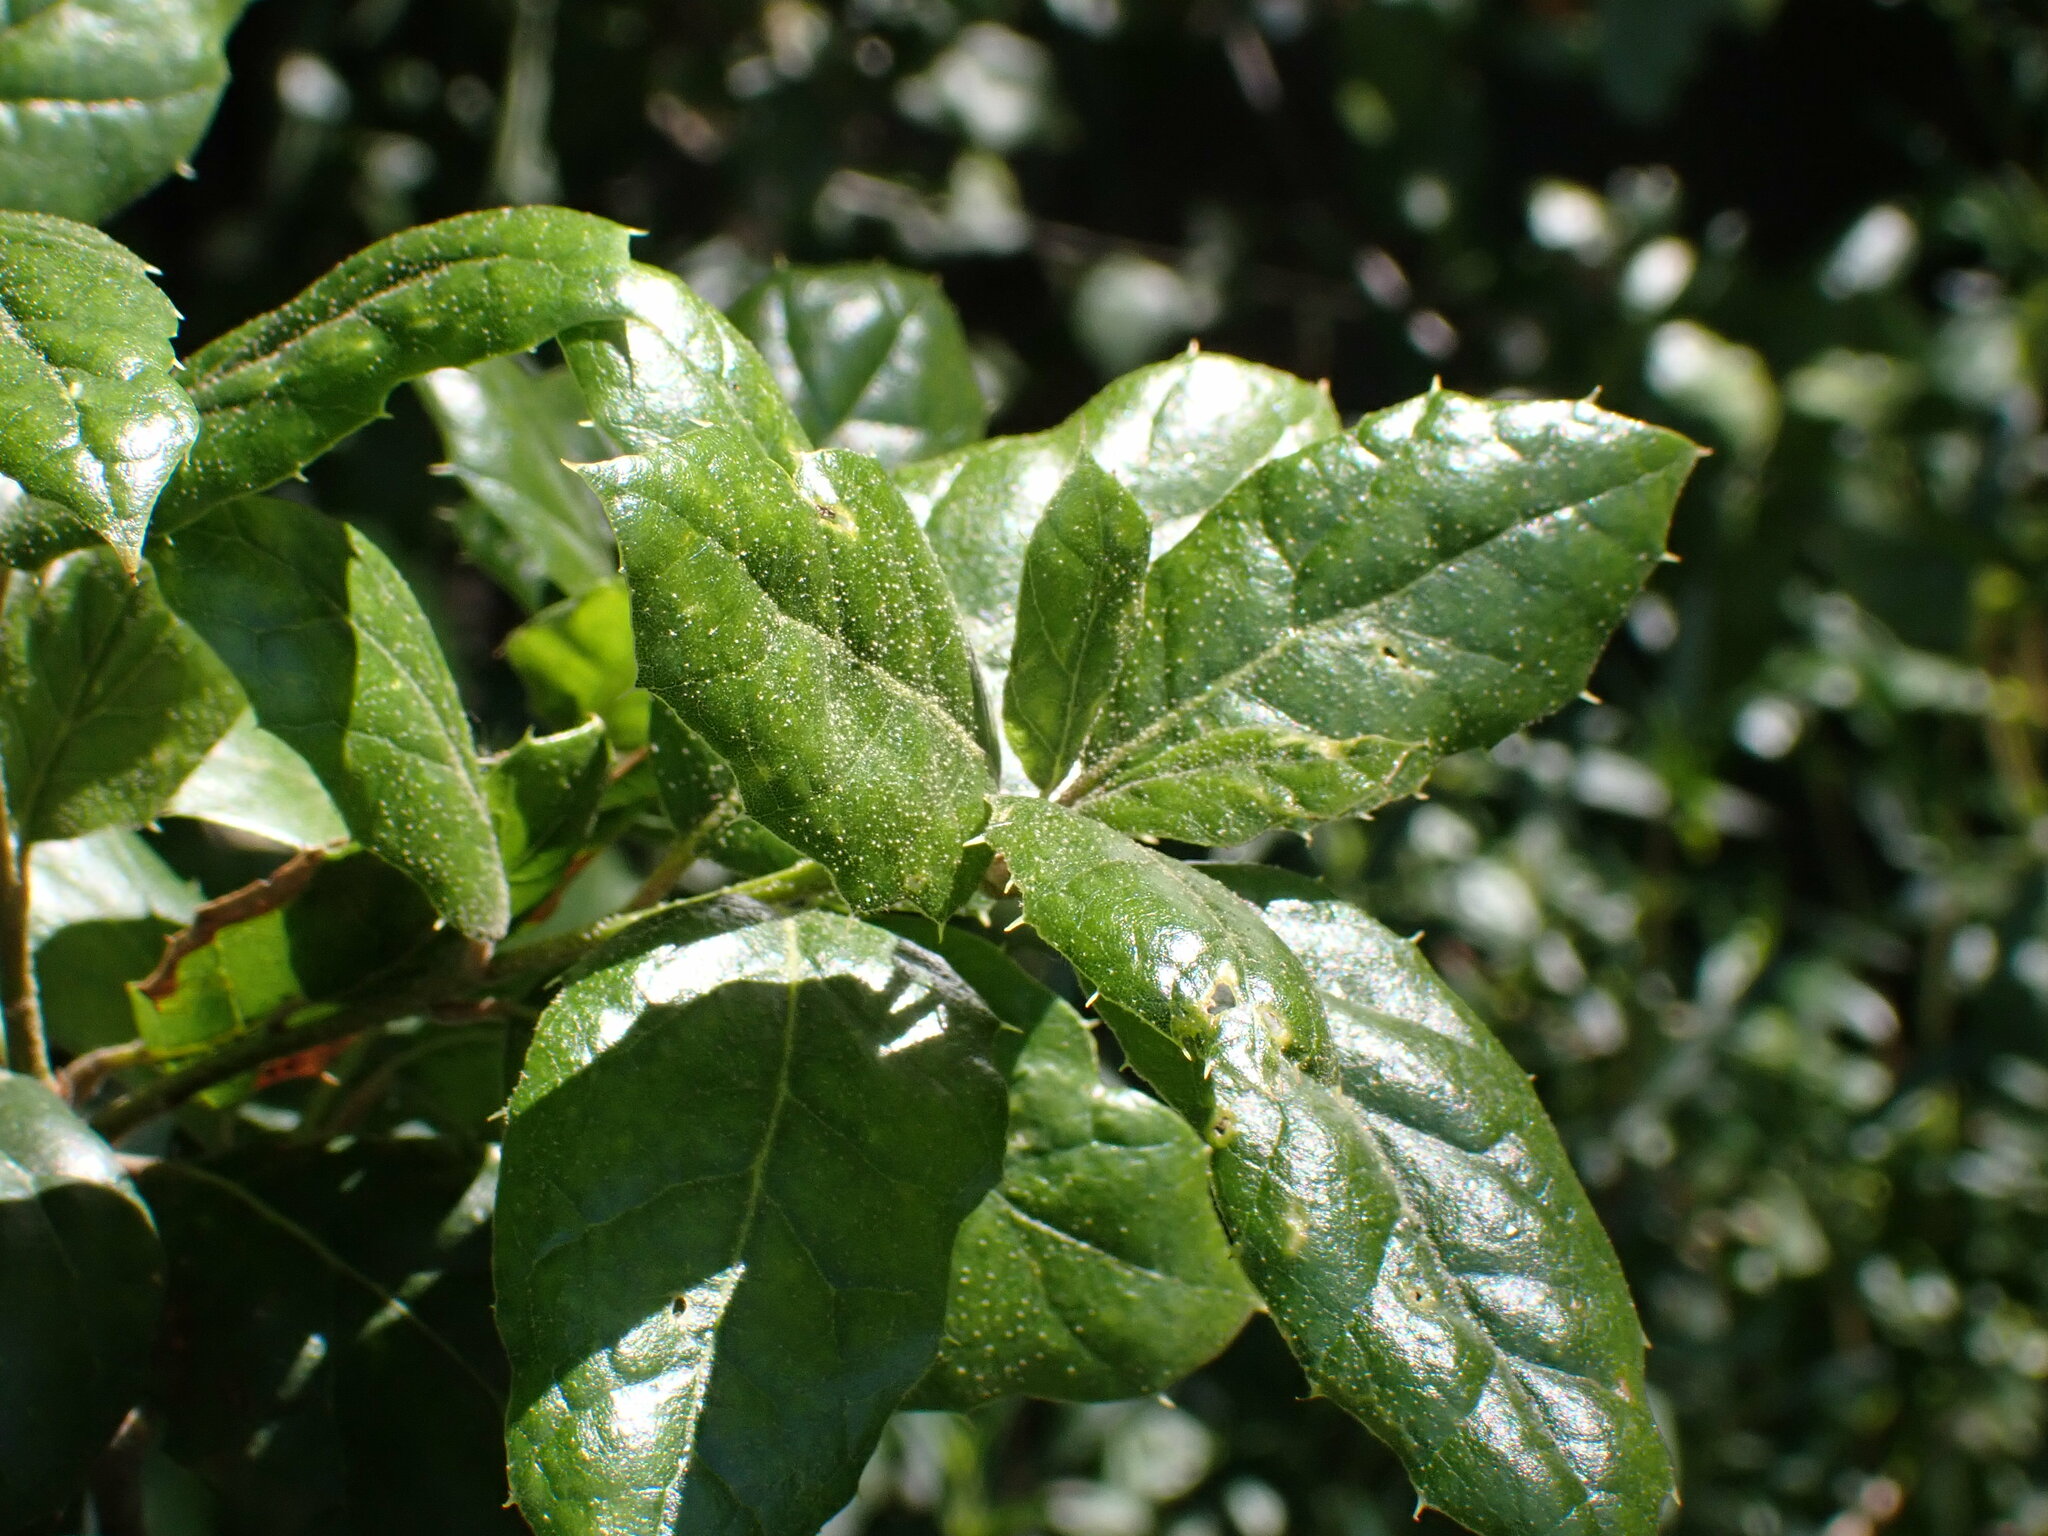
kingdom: Plantae
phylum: Tracheophyta
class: Magnoliopsida
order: Fagales
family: Fagaceae
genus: Quercus
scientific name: Quercus agrifolia
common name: California live oak
